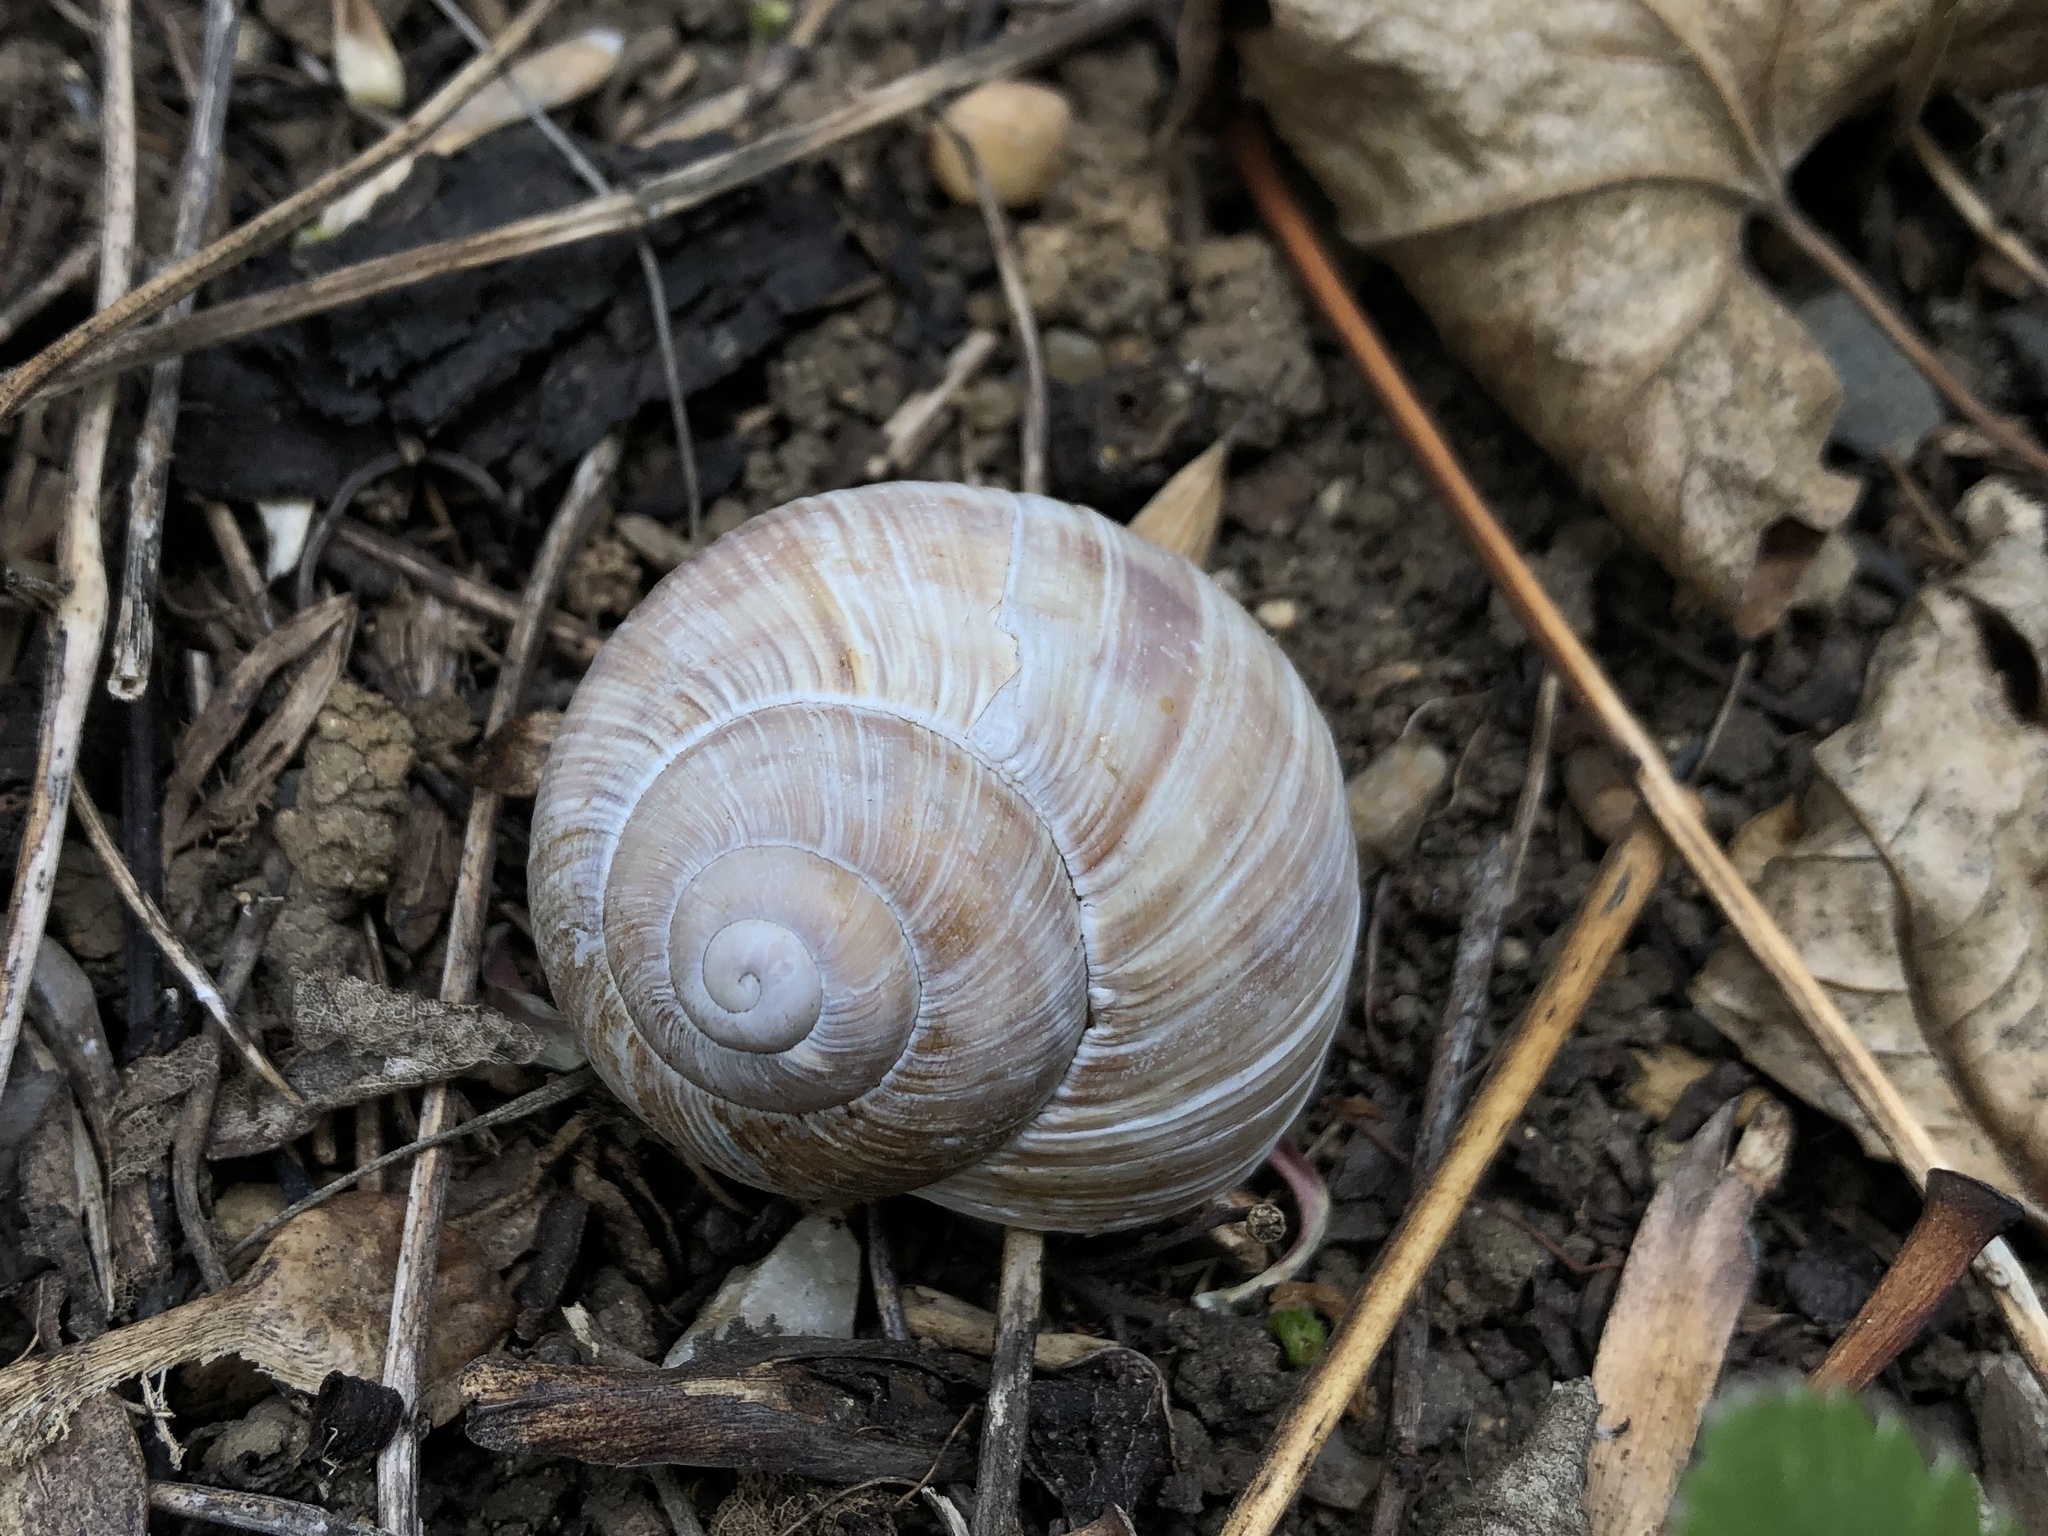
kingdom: Animalia
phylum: Mollusca
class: Gastropoda
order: Stylommatophora
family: Helicidae
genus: Helix
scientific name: Helix pomatia
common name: Roman snail
